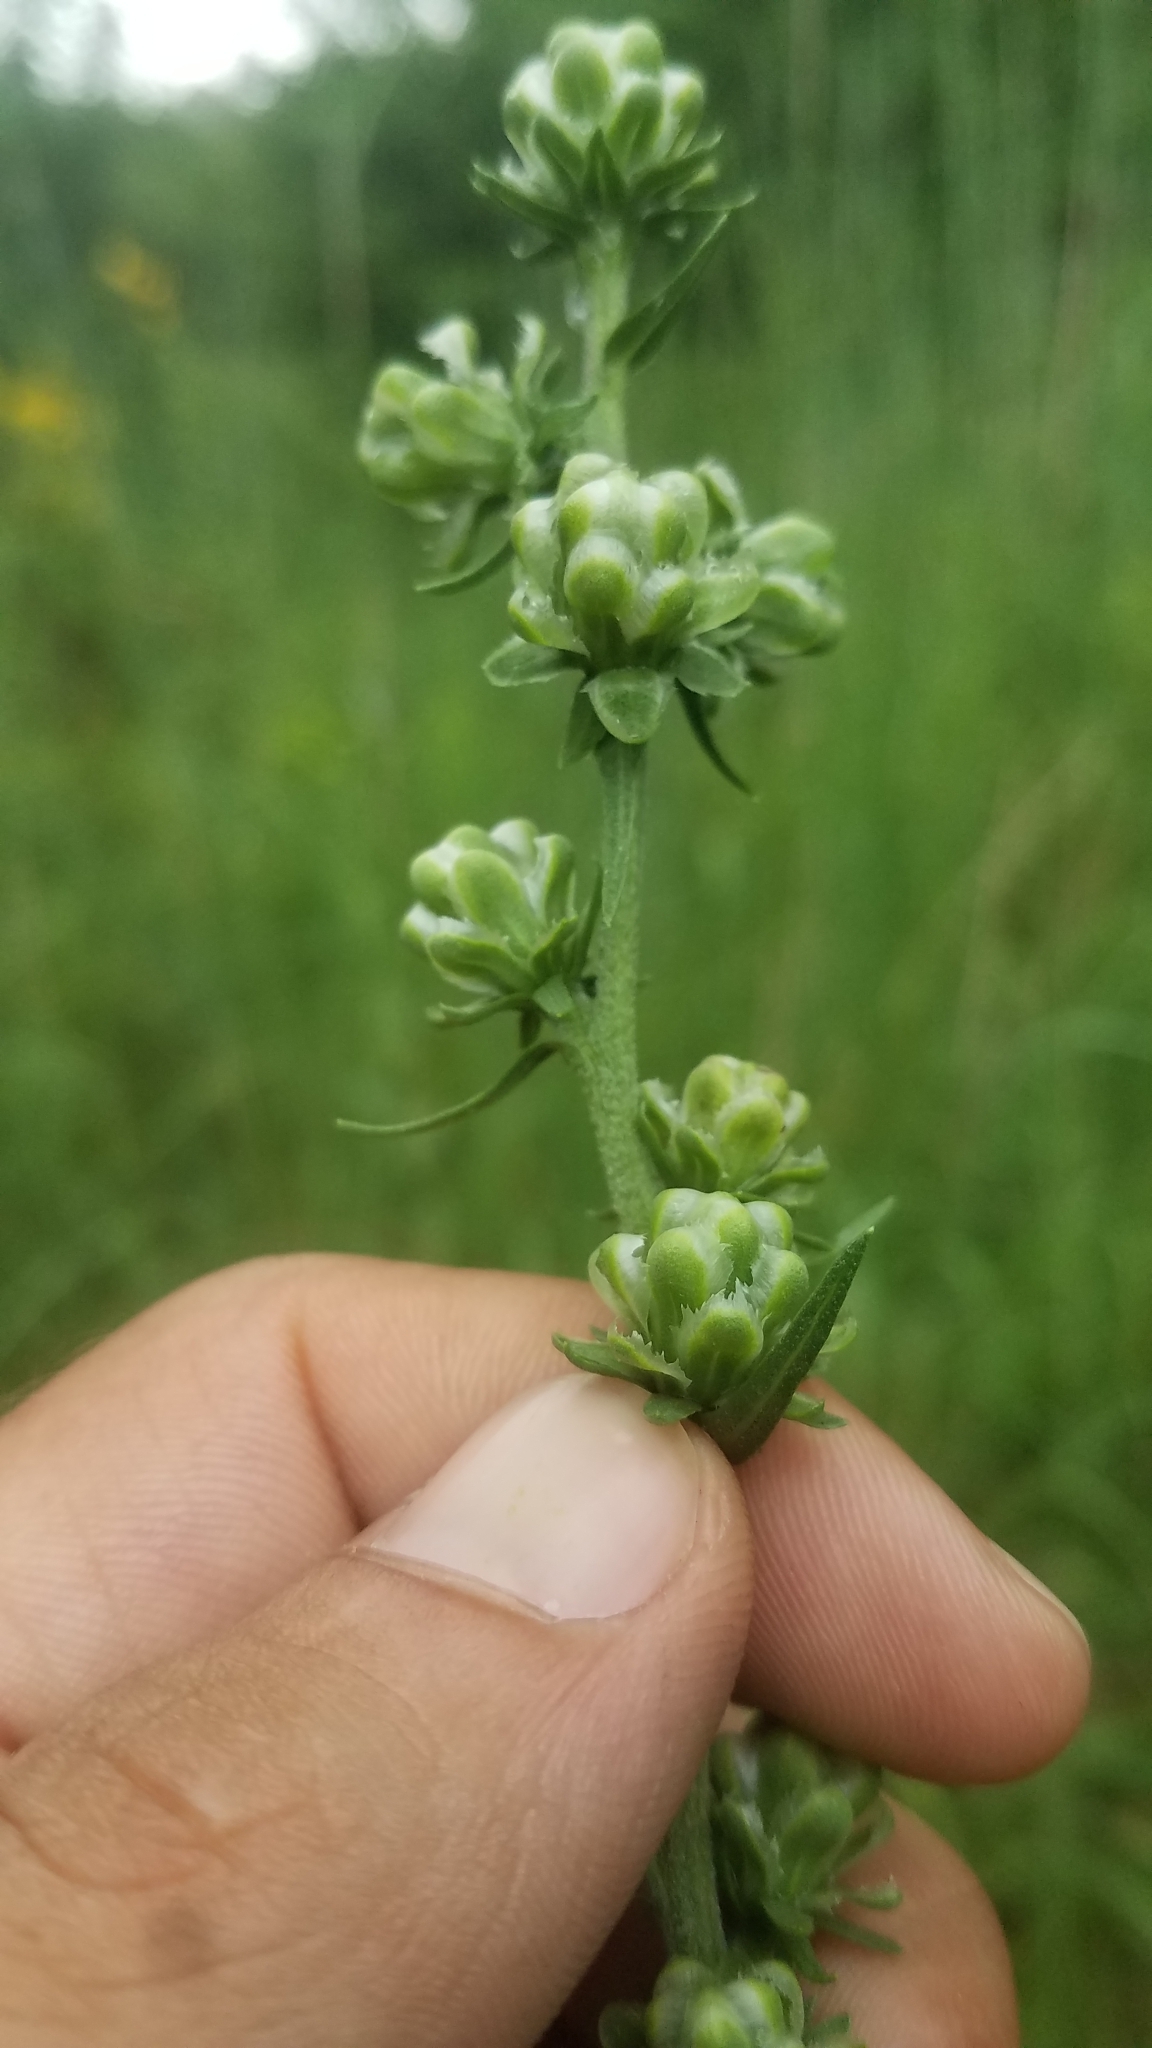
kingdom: Plantae
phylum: Tracheophyta
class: Magnoliopsida
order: Asterales
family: Asteraceae
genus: Liatris
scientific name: Liatris aspera
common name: Lacerate blazing-star
